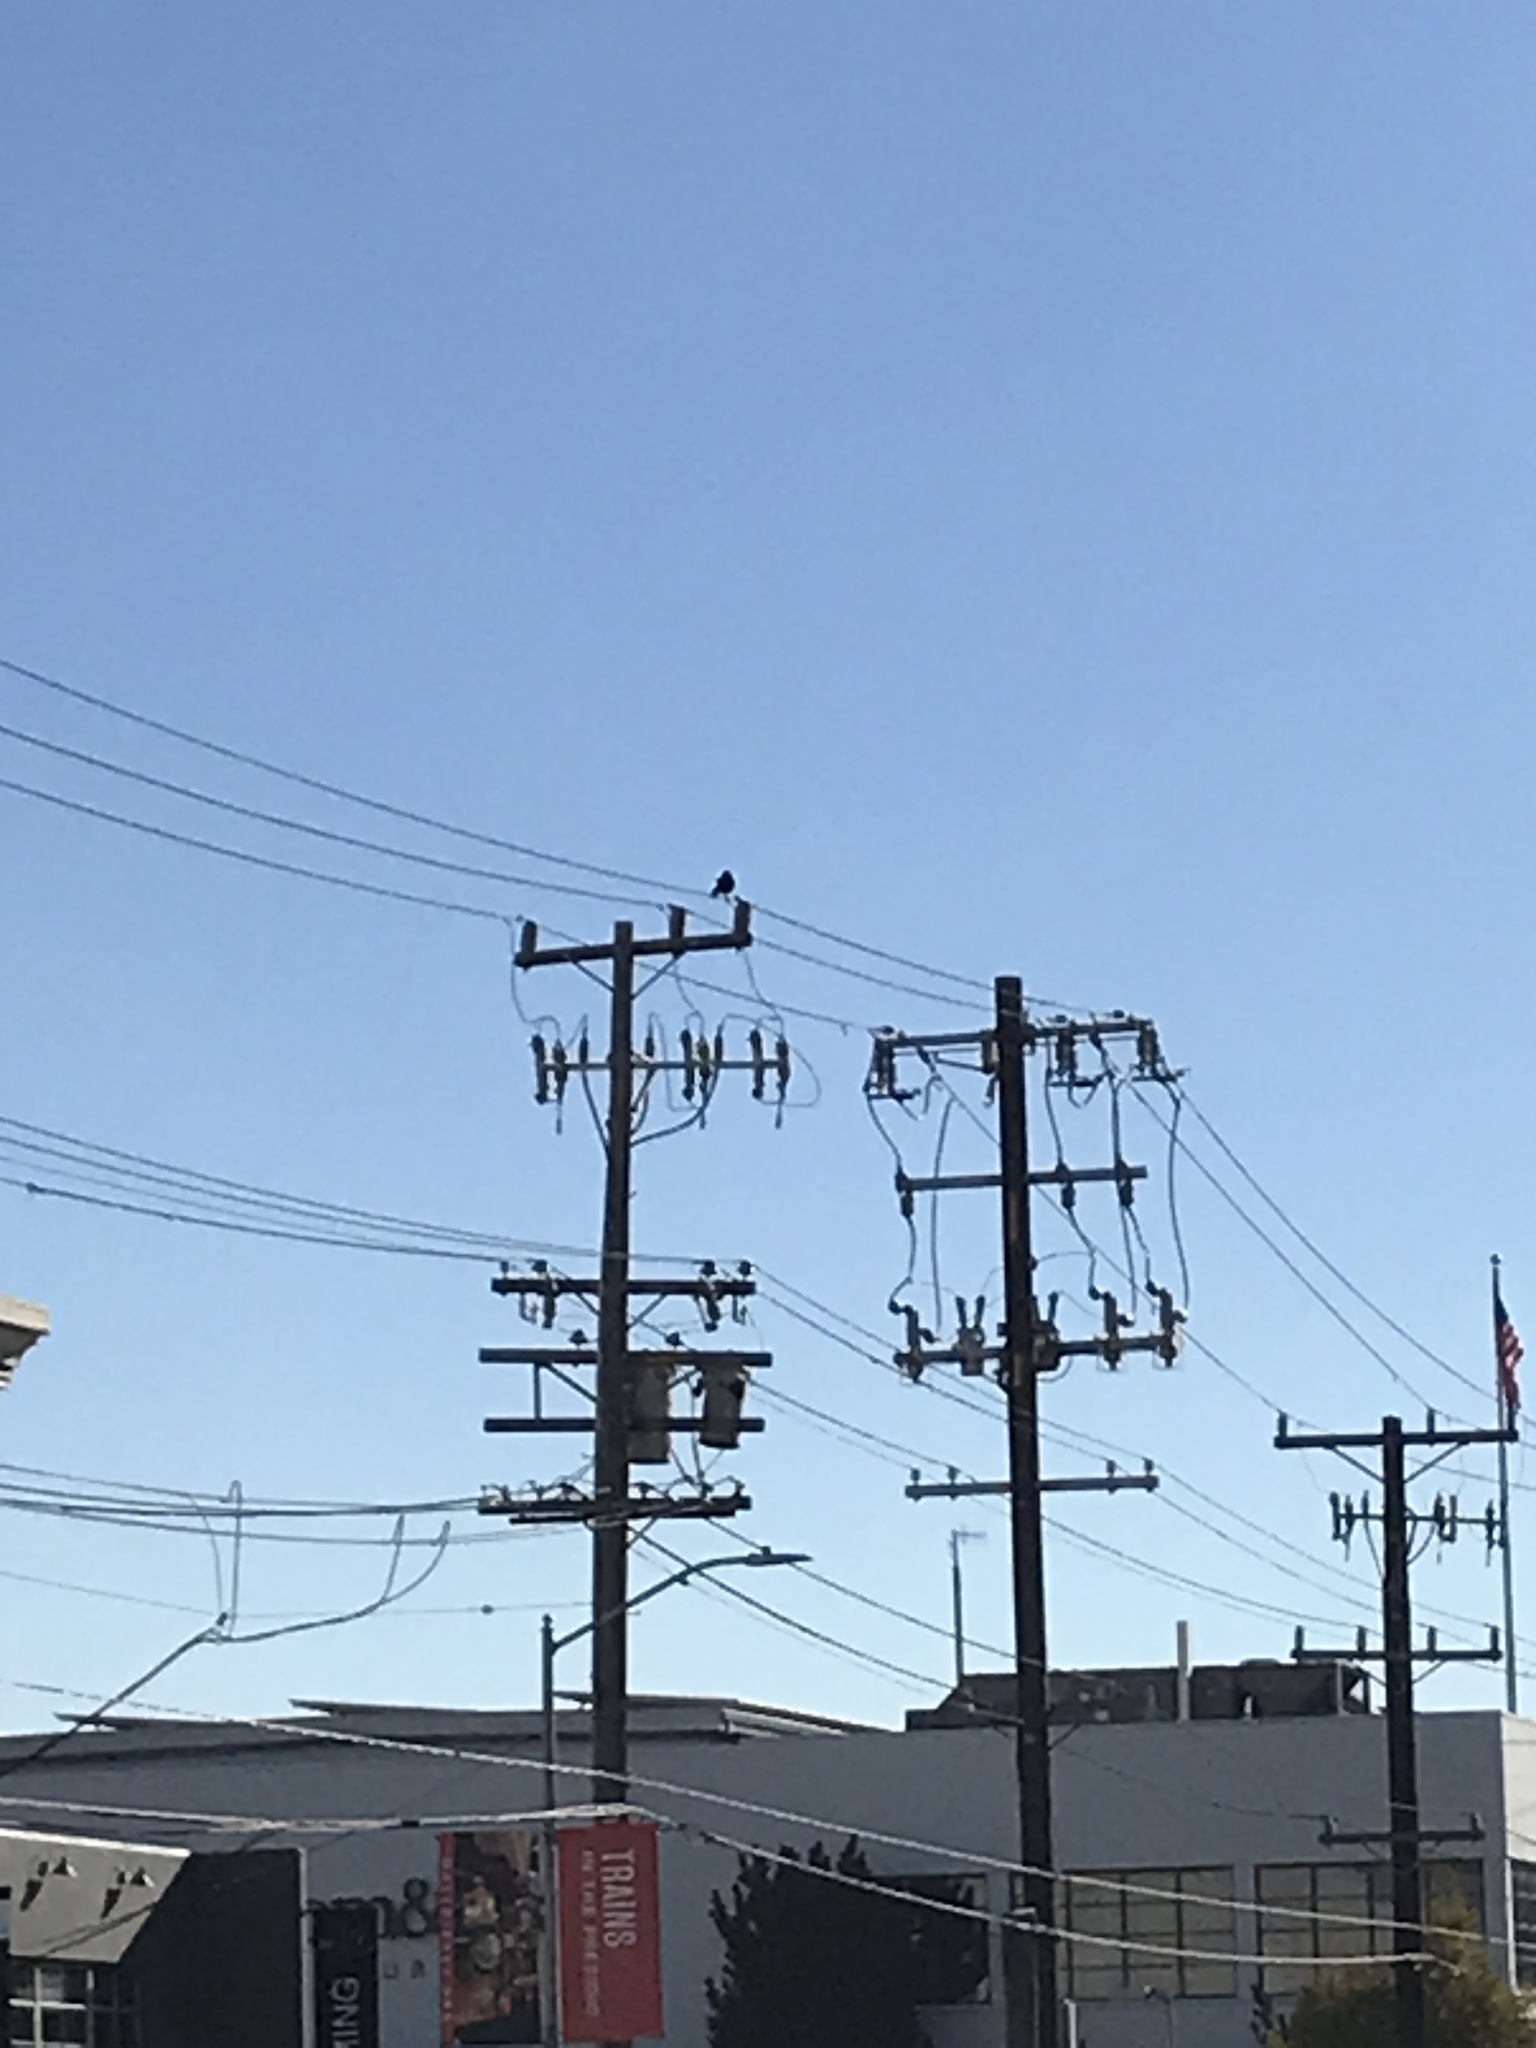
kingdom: Animalia
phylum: Chordata
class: Aves
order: Passeriformes
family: Corvidae
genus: Corvus
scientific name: Corvus brachyrhynchos
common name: American crow
